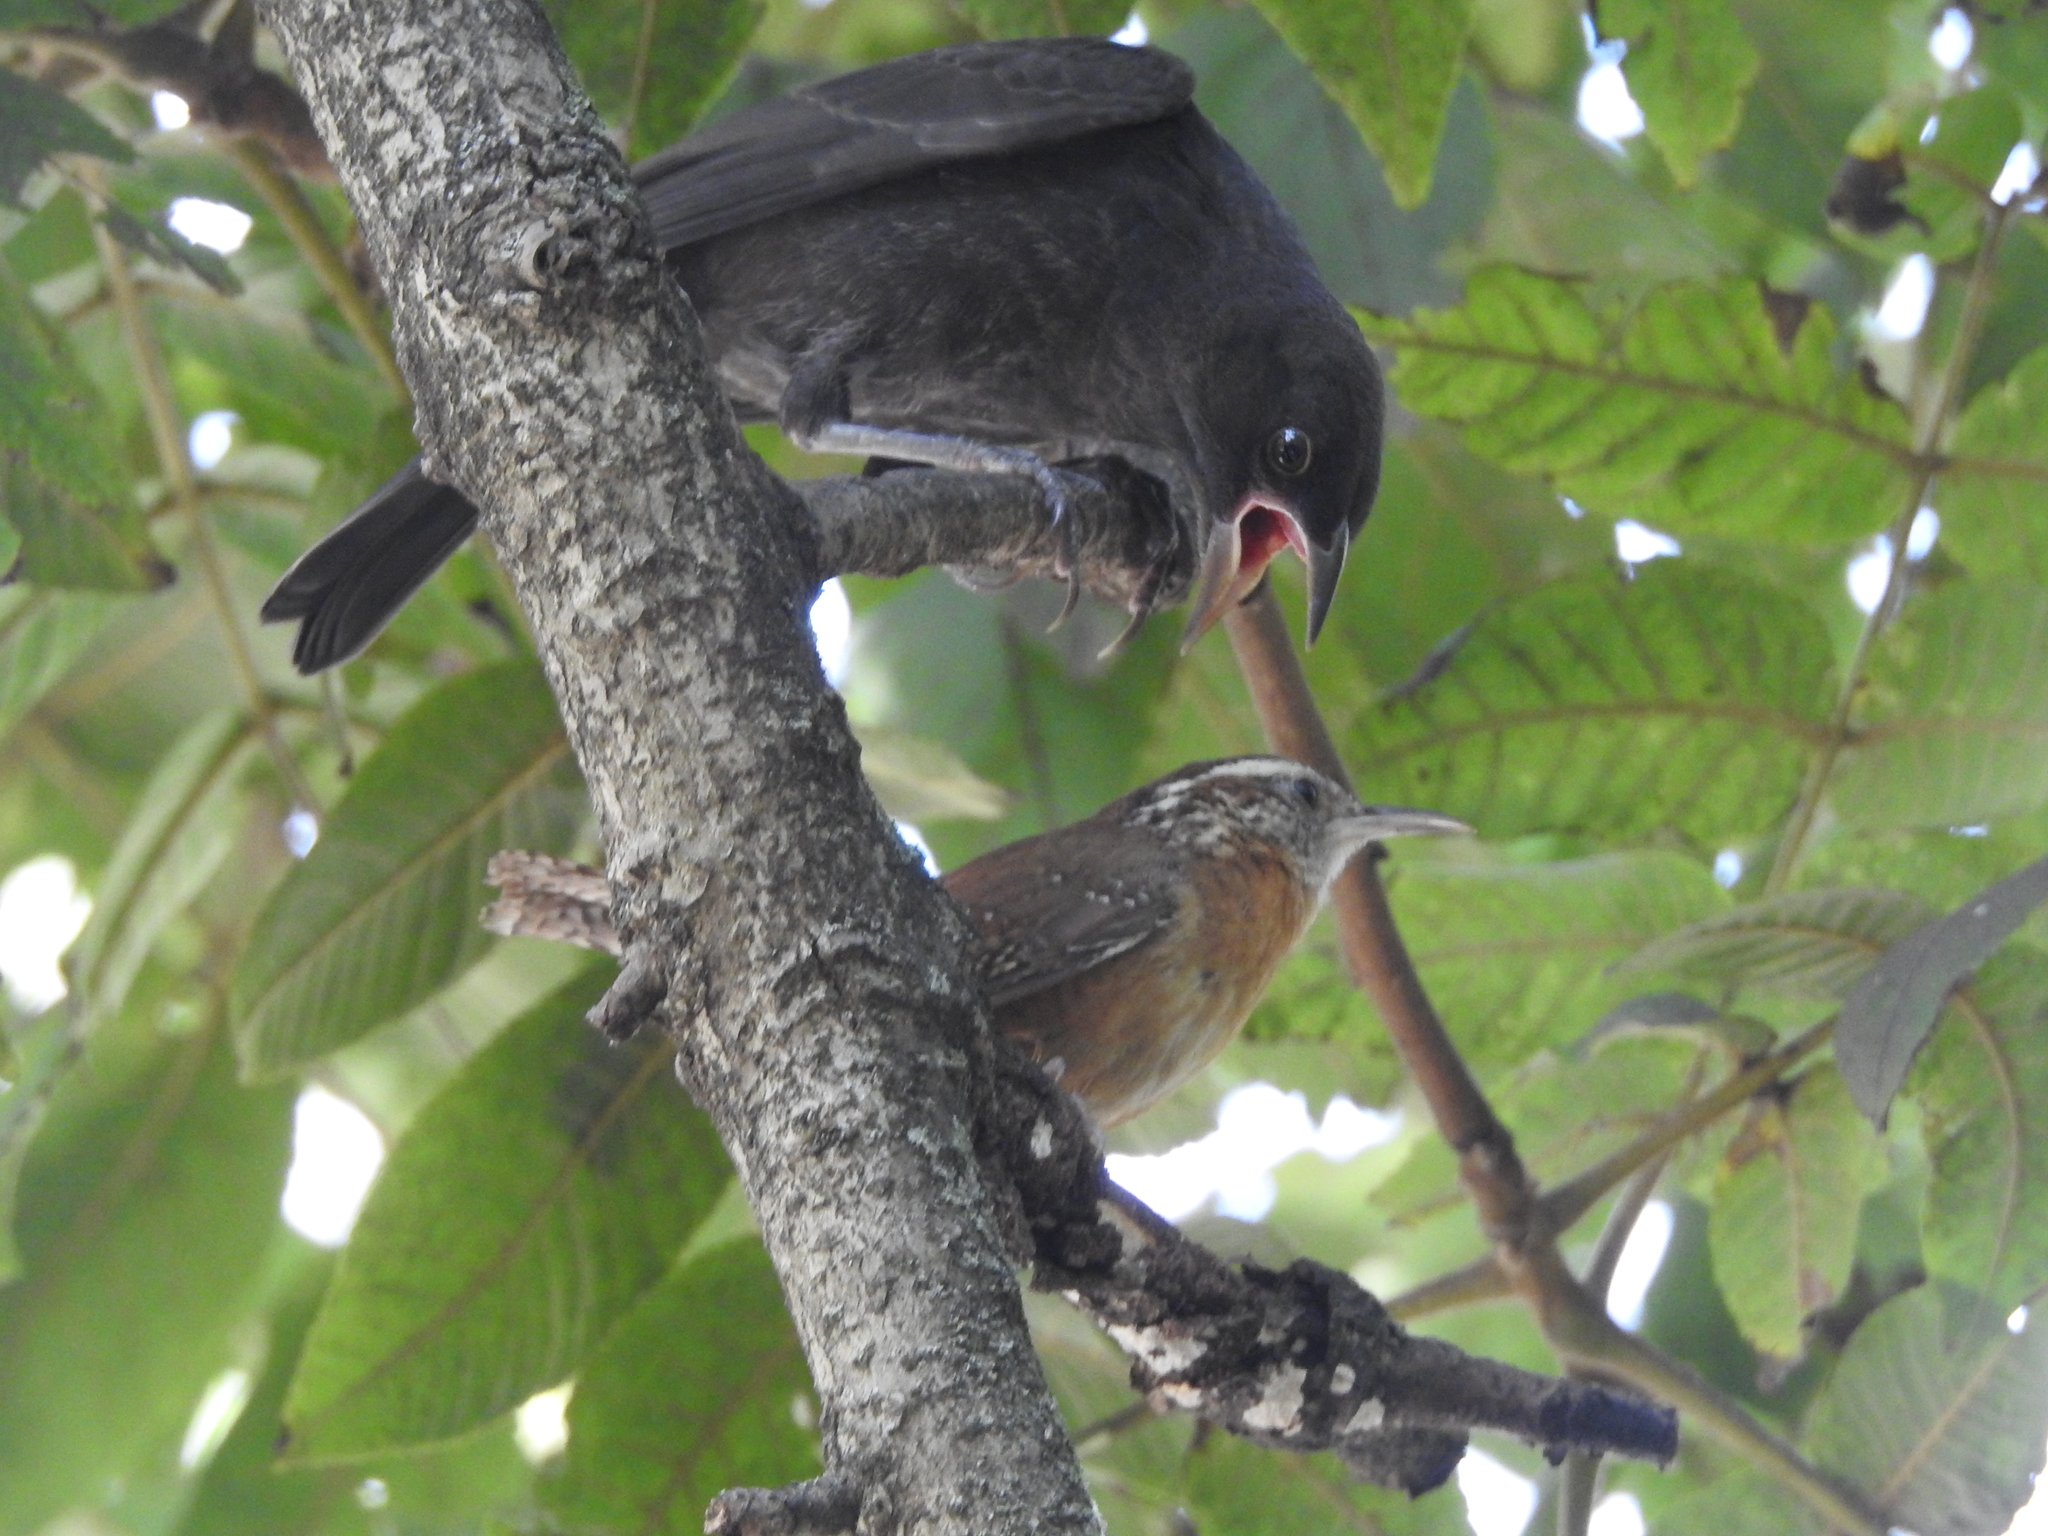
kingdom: Animalia
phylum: Chordata
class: Aves
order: Passeriformes
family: Icteridae
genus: Molothrus
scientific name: Molothrus aeneus
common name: Bronzed cowbird
